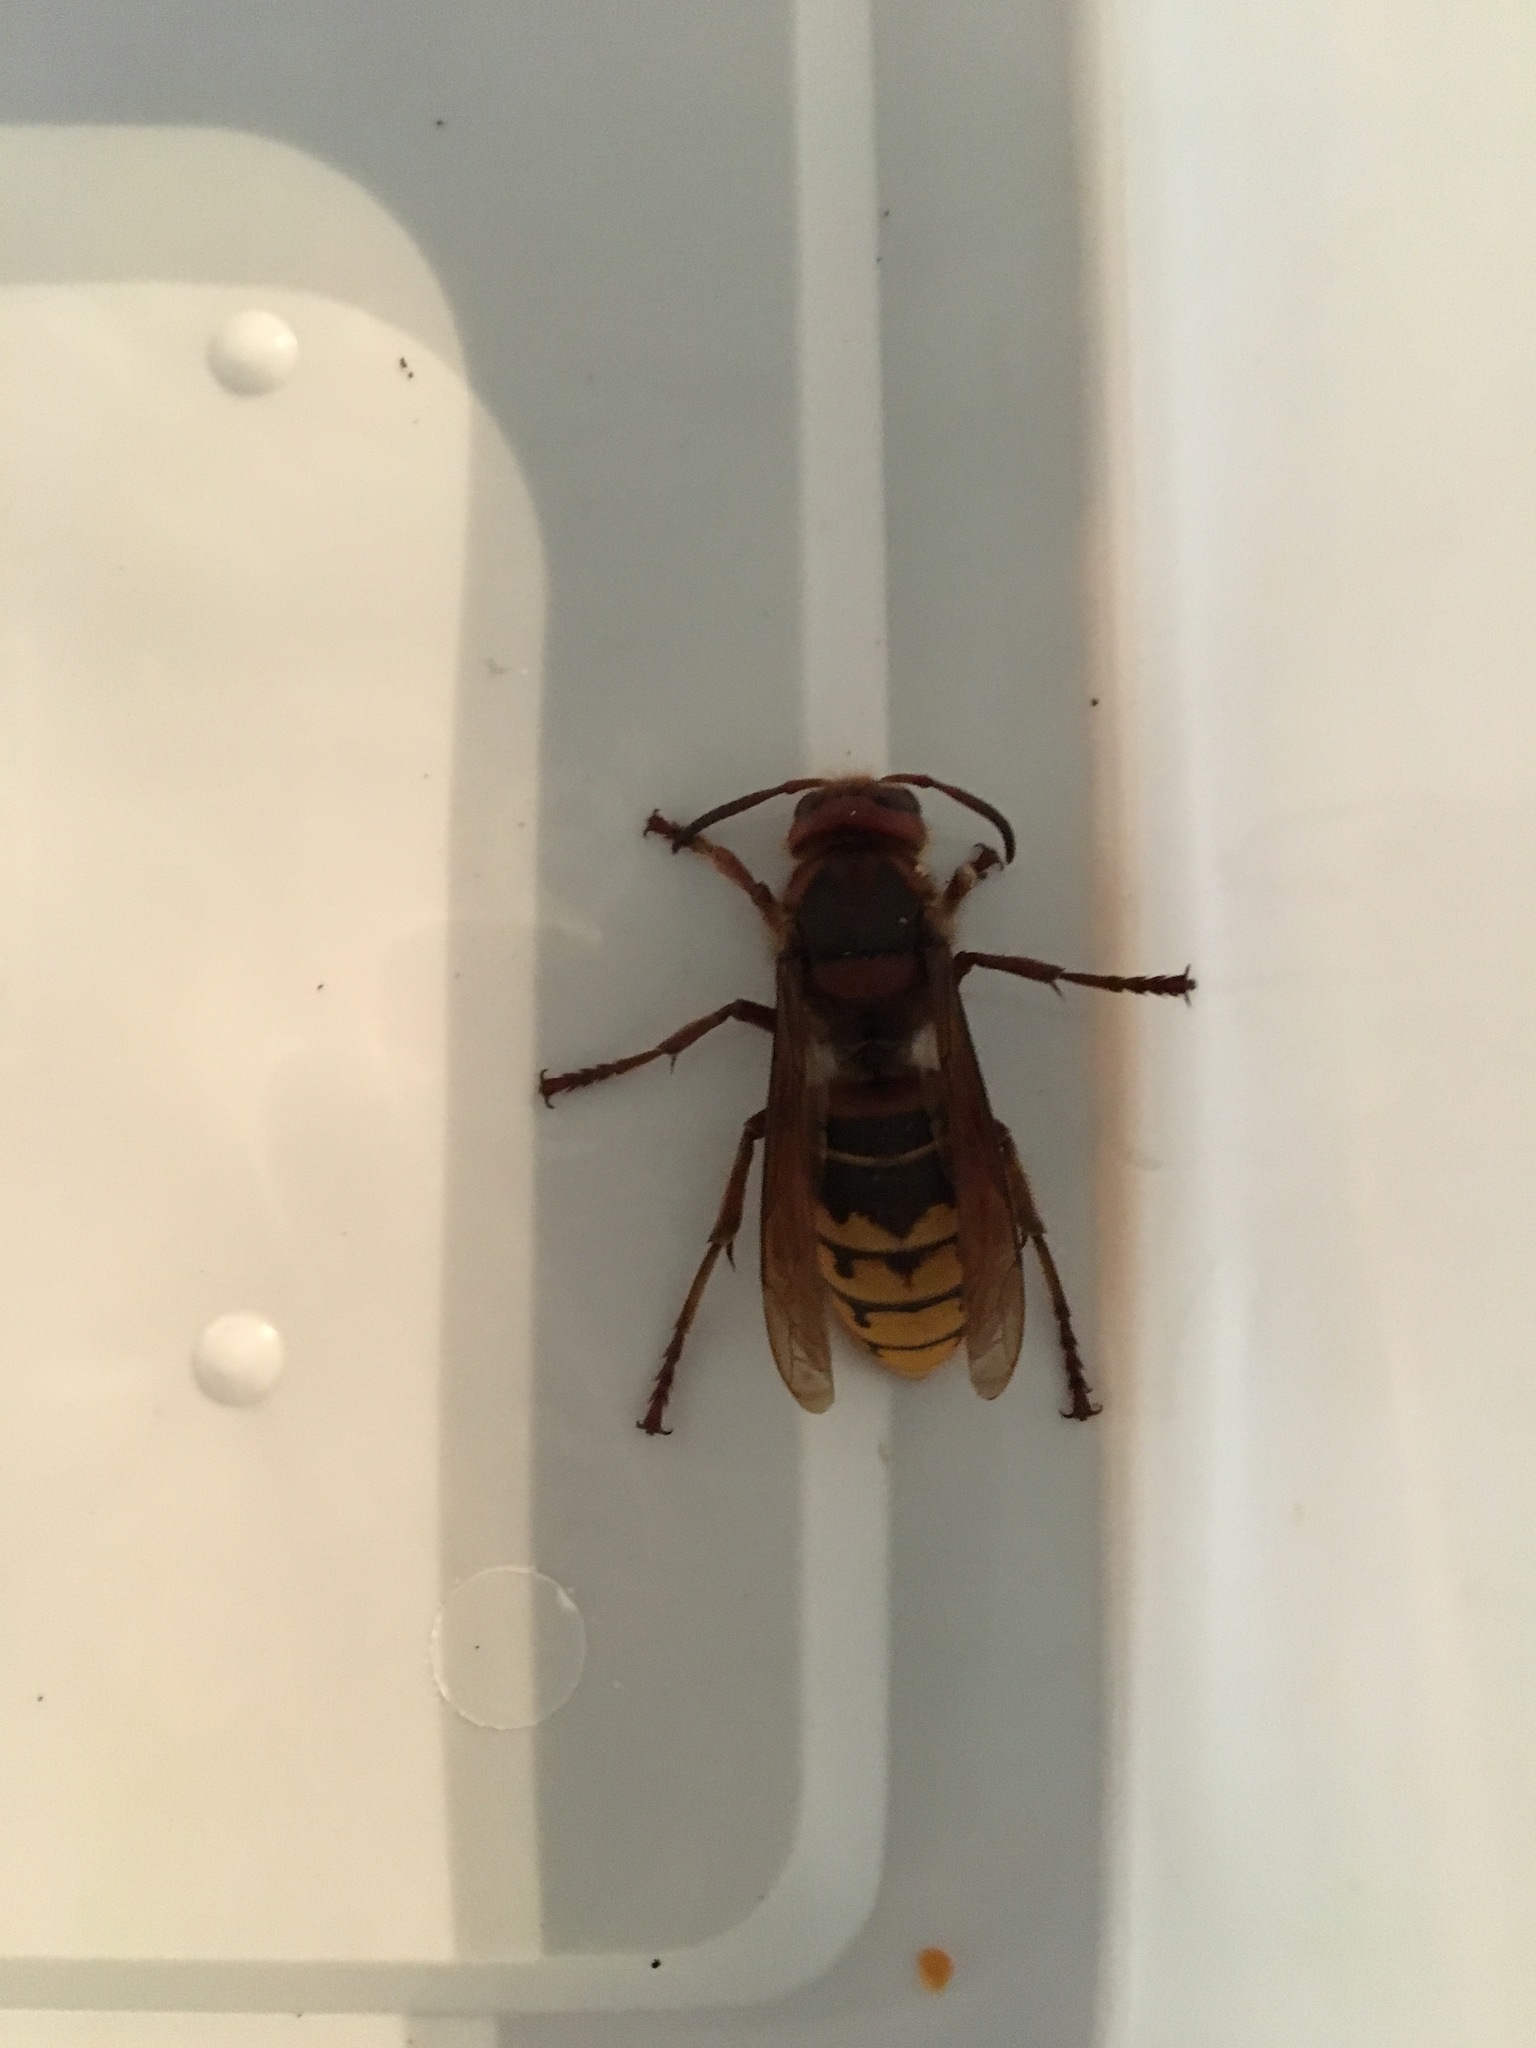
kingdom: Animalia
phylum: Arthropoda
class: Insecta
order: Hymenoptera
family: Vespidae
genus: Vespa
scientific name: Vespa crabro
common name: Hornet
